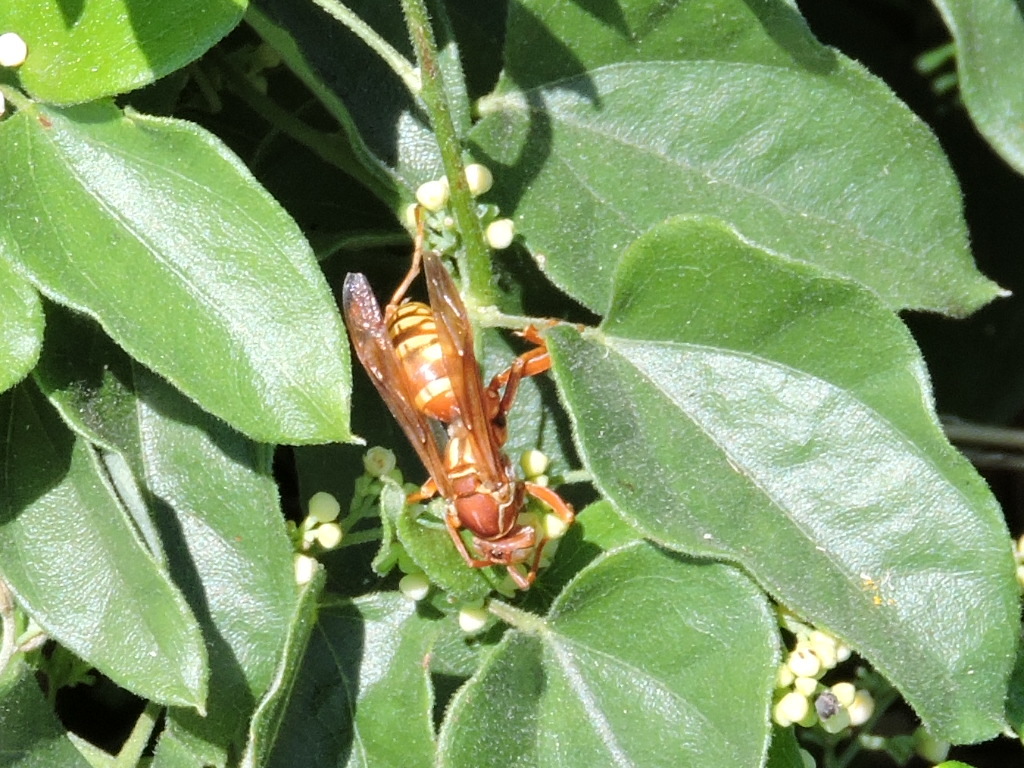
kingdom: Animalia
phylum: Arthropoda
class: Insecta
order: Hymenoptera
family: Eumenidae
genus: Polistes
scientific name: Polistes apachus
